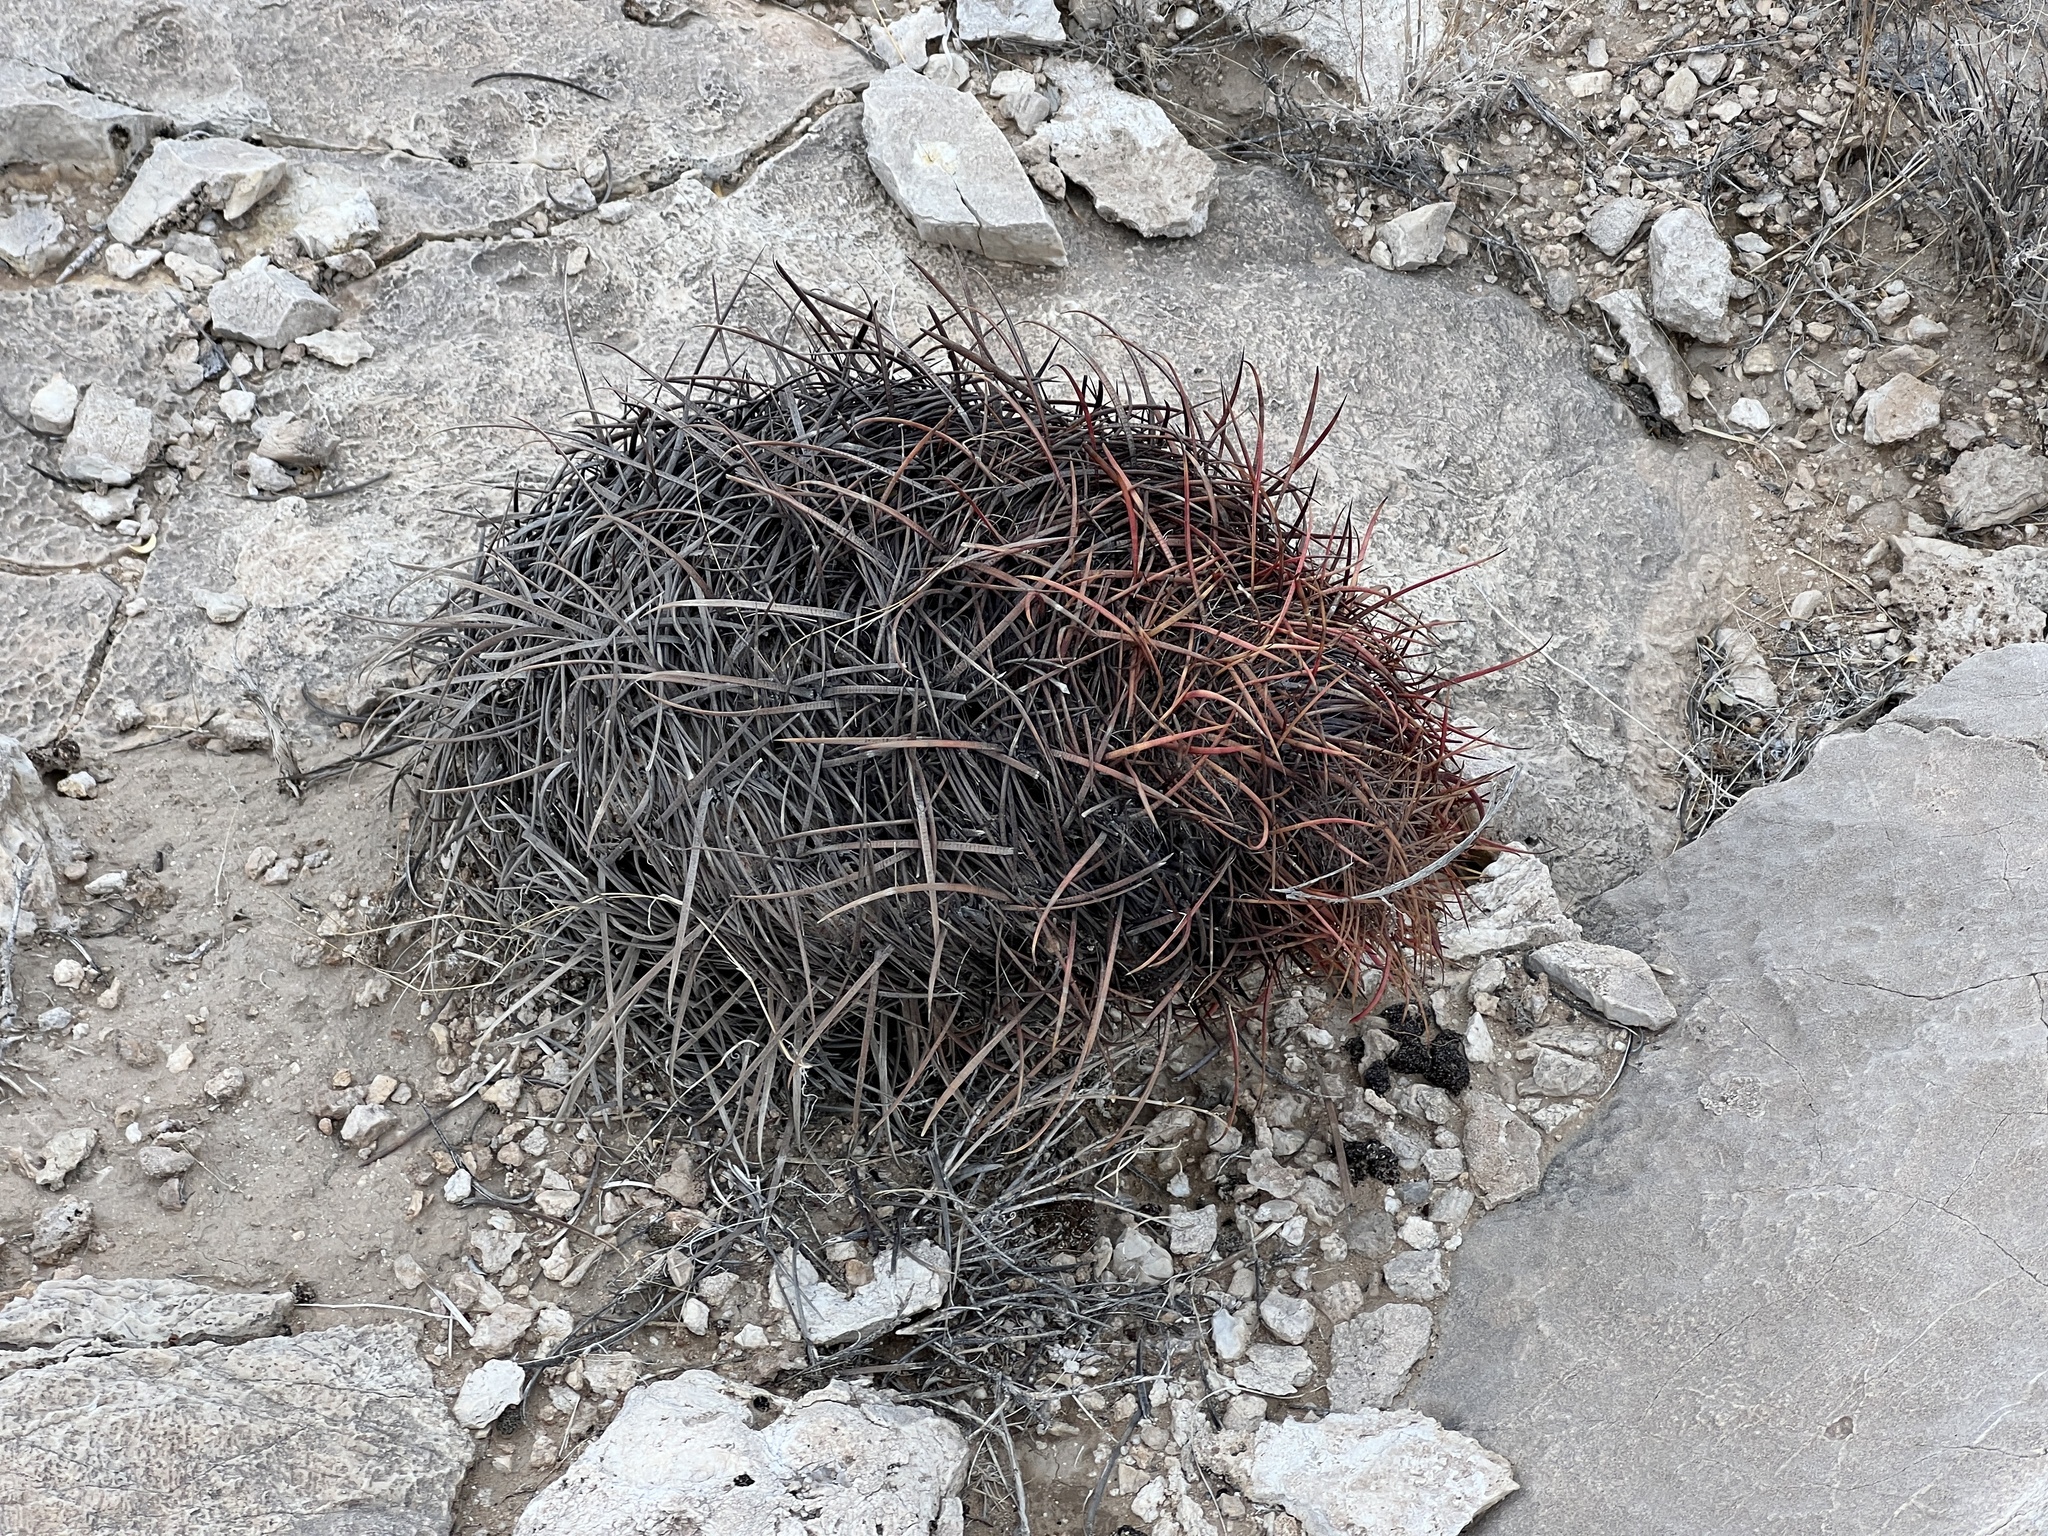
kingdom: Plantae
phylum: Tracheophyta
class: Magnoliopsida
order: Caryophyllales
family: Cactaceae
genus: Ferocactus
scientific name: Ferocactus cylindraceus
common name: California barrel cactus
